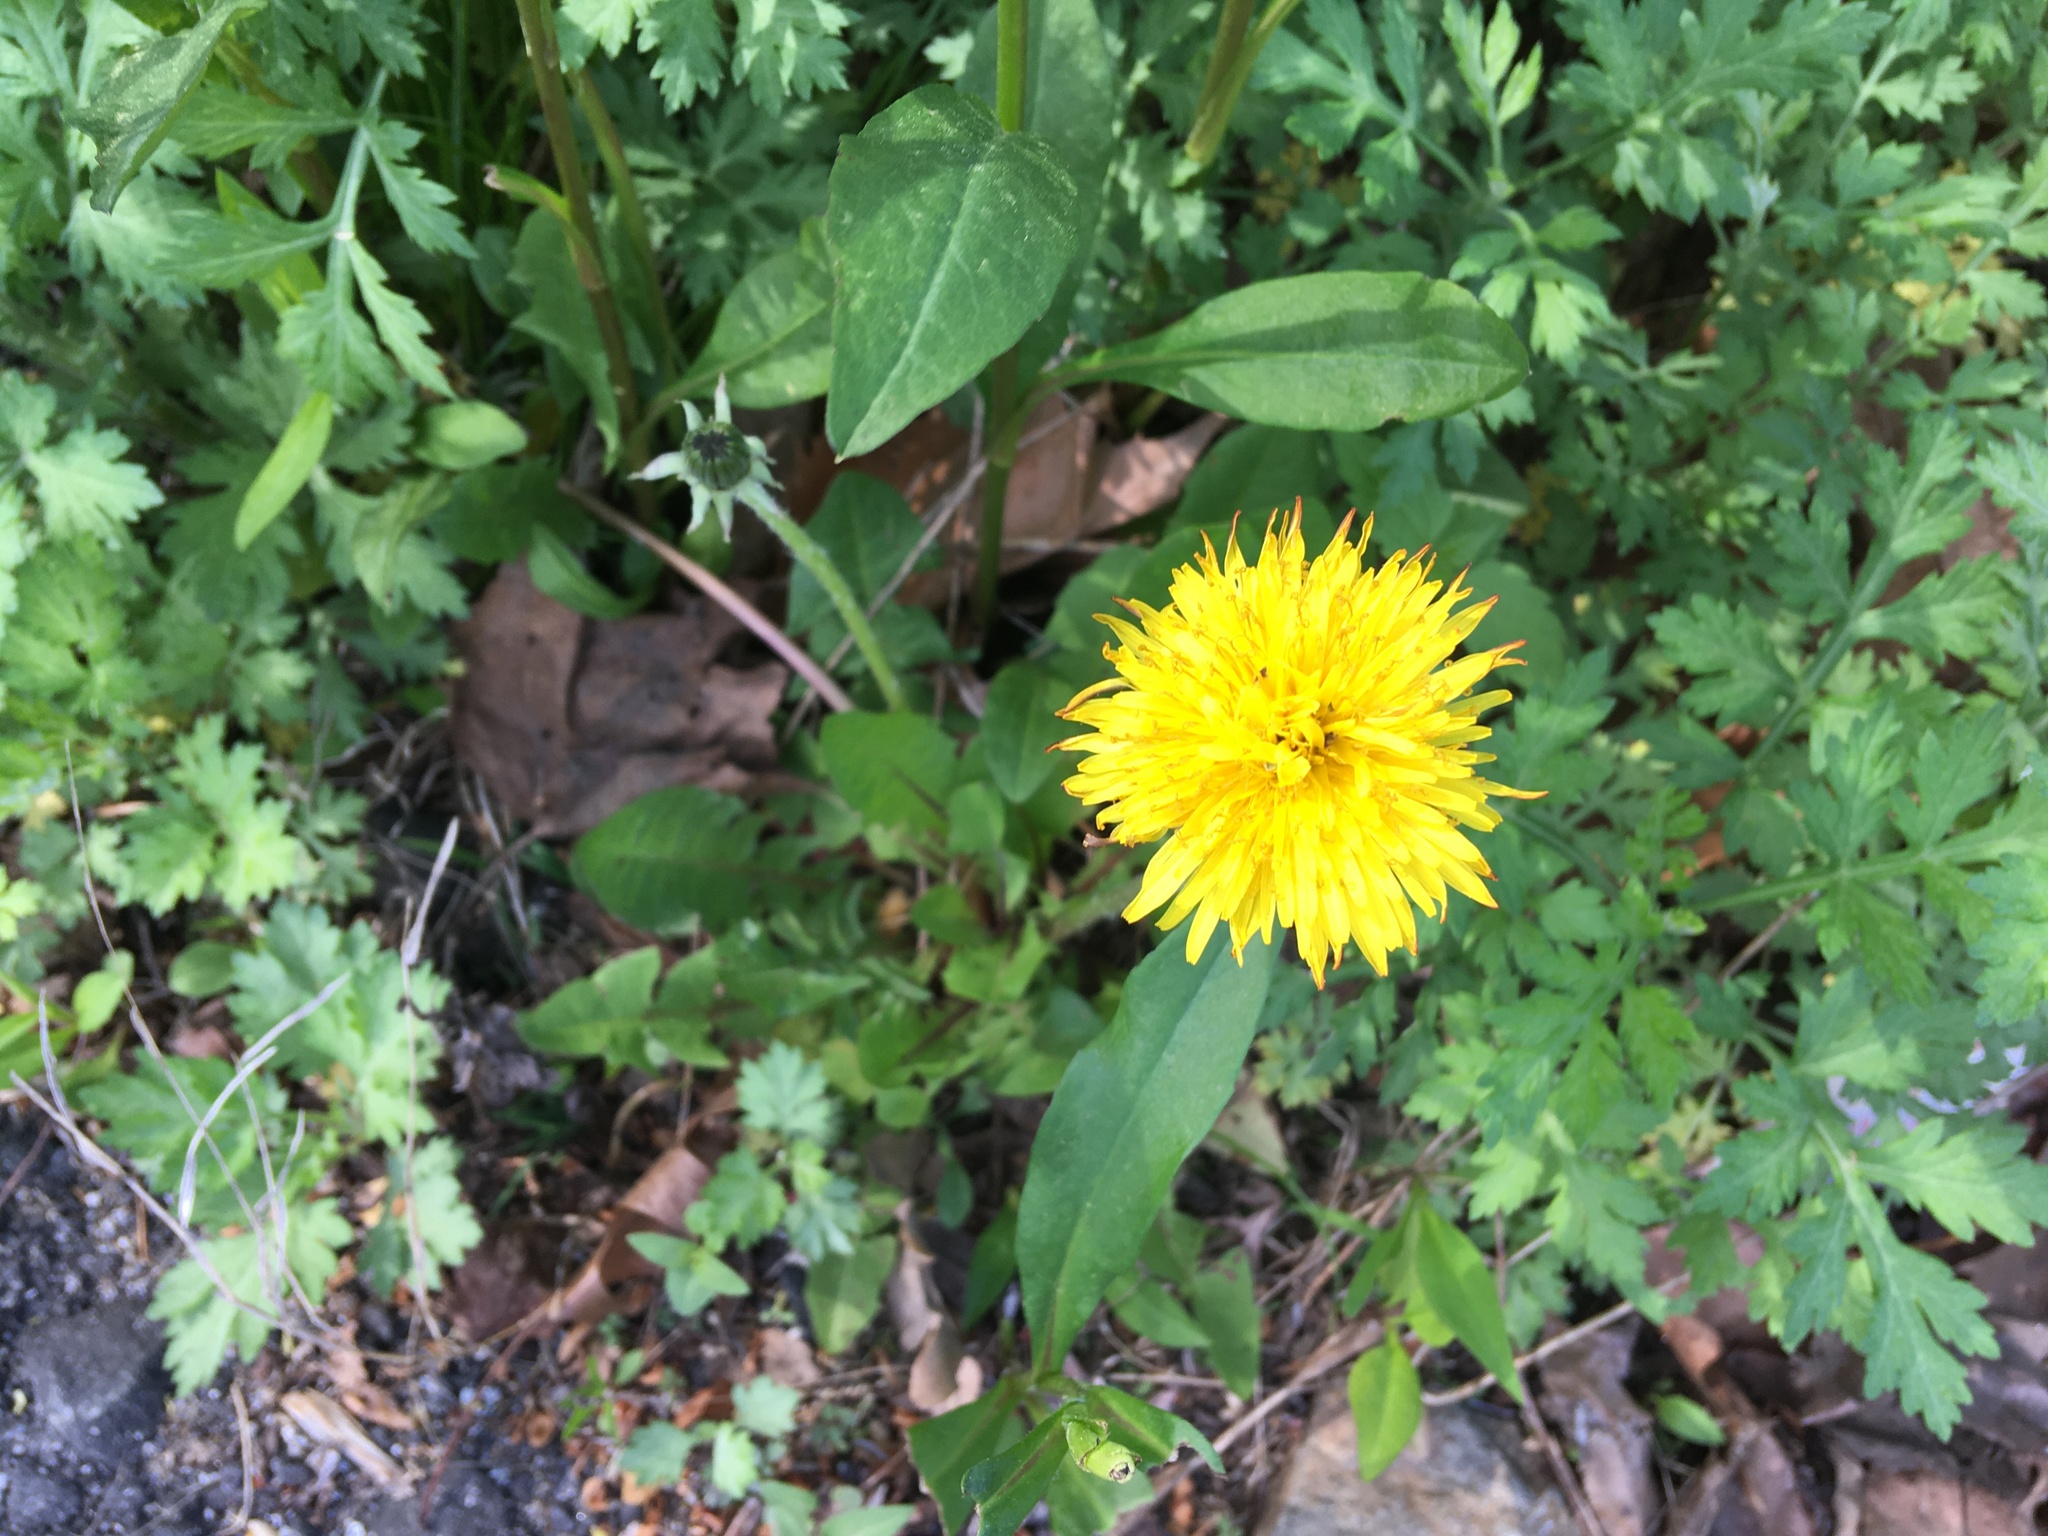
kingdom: Plantae
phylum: Tracheophyta
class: Magnoliopsida
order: Asterales
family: Asteraceae
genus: Taraxacum
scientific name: Taraxacum officinale
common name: Common dandelion
